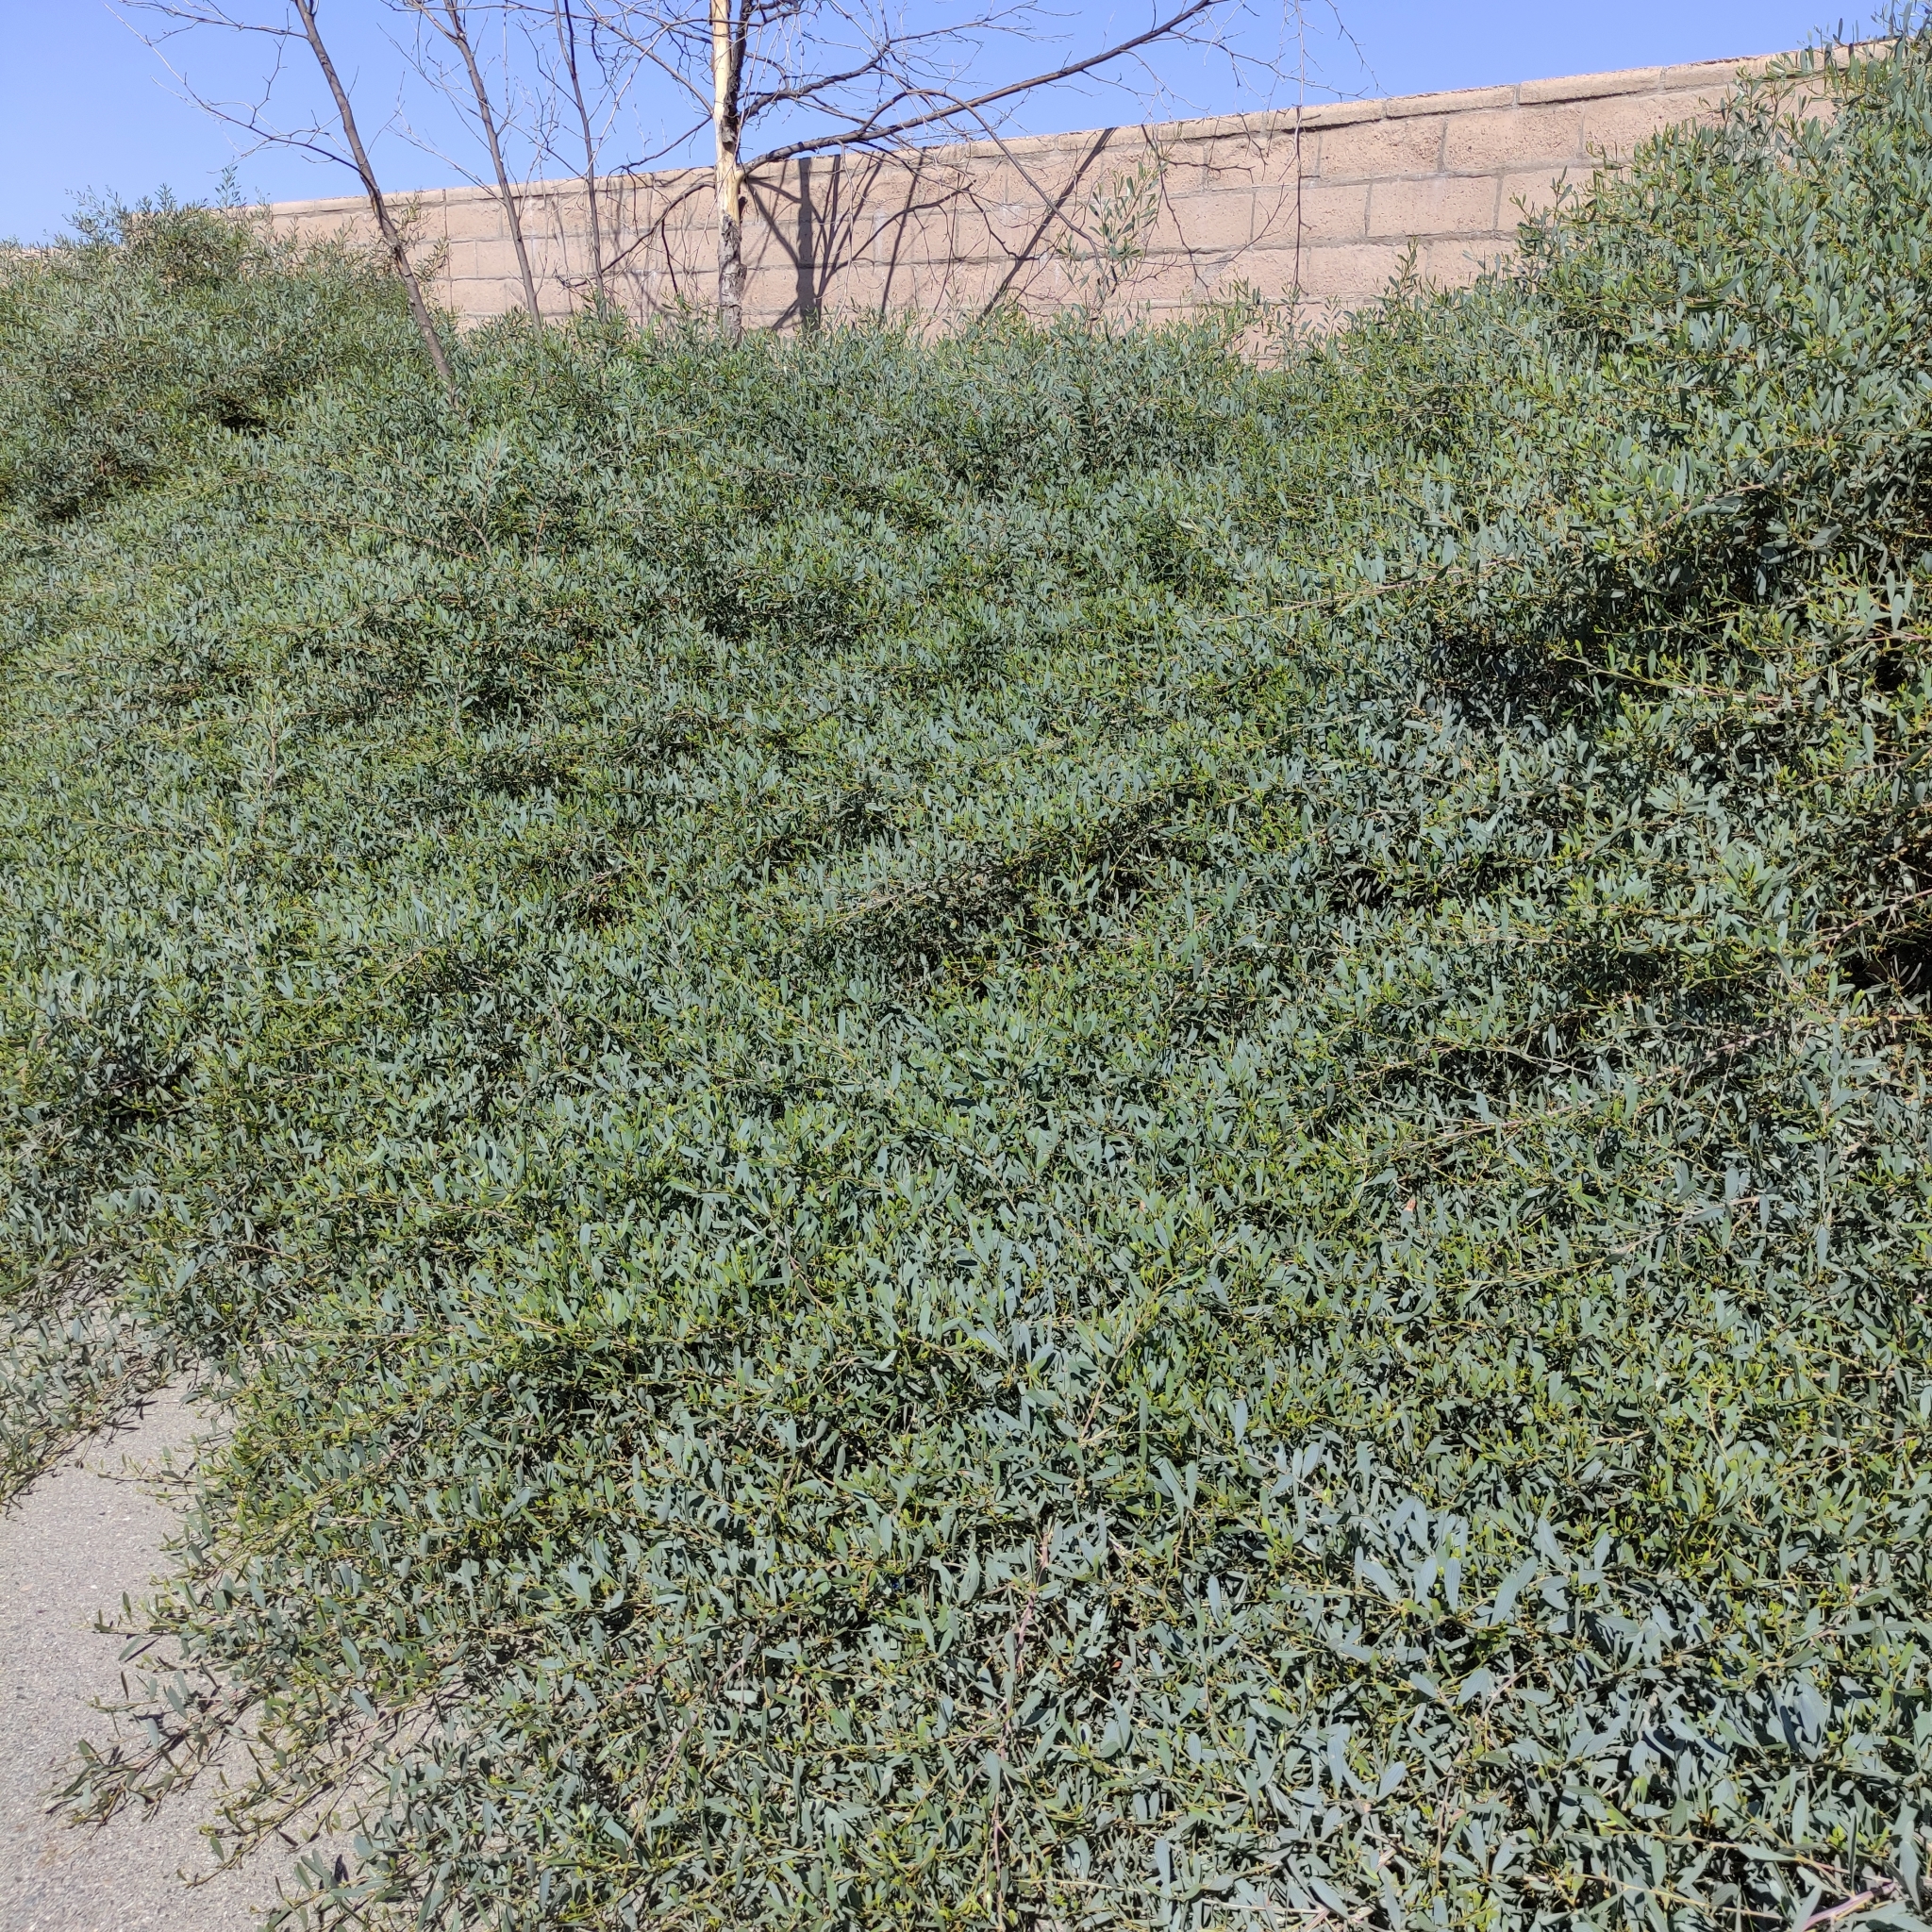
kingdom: Plantae
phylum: Tracheophyta
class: Magnoliopsida
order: Fabales
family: Fabaceae
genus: Acacia
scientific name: Acacia redolens
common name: Bank catclaw
